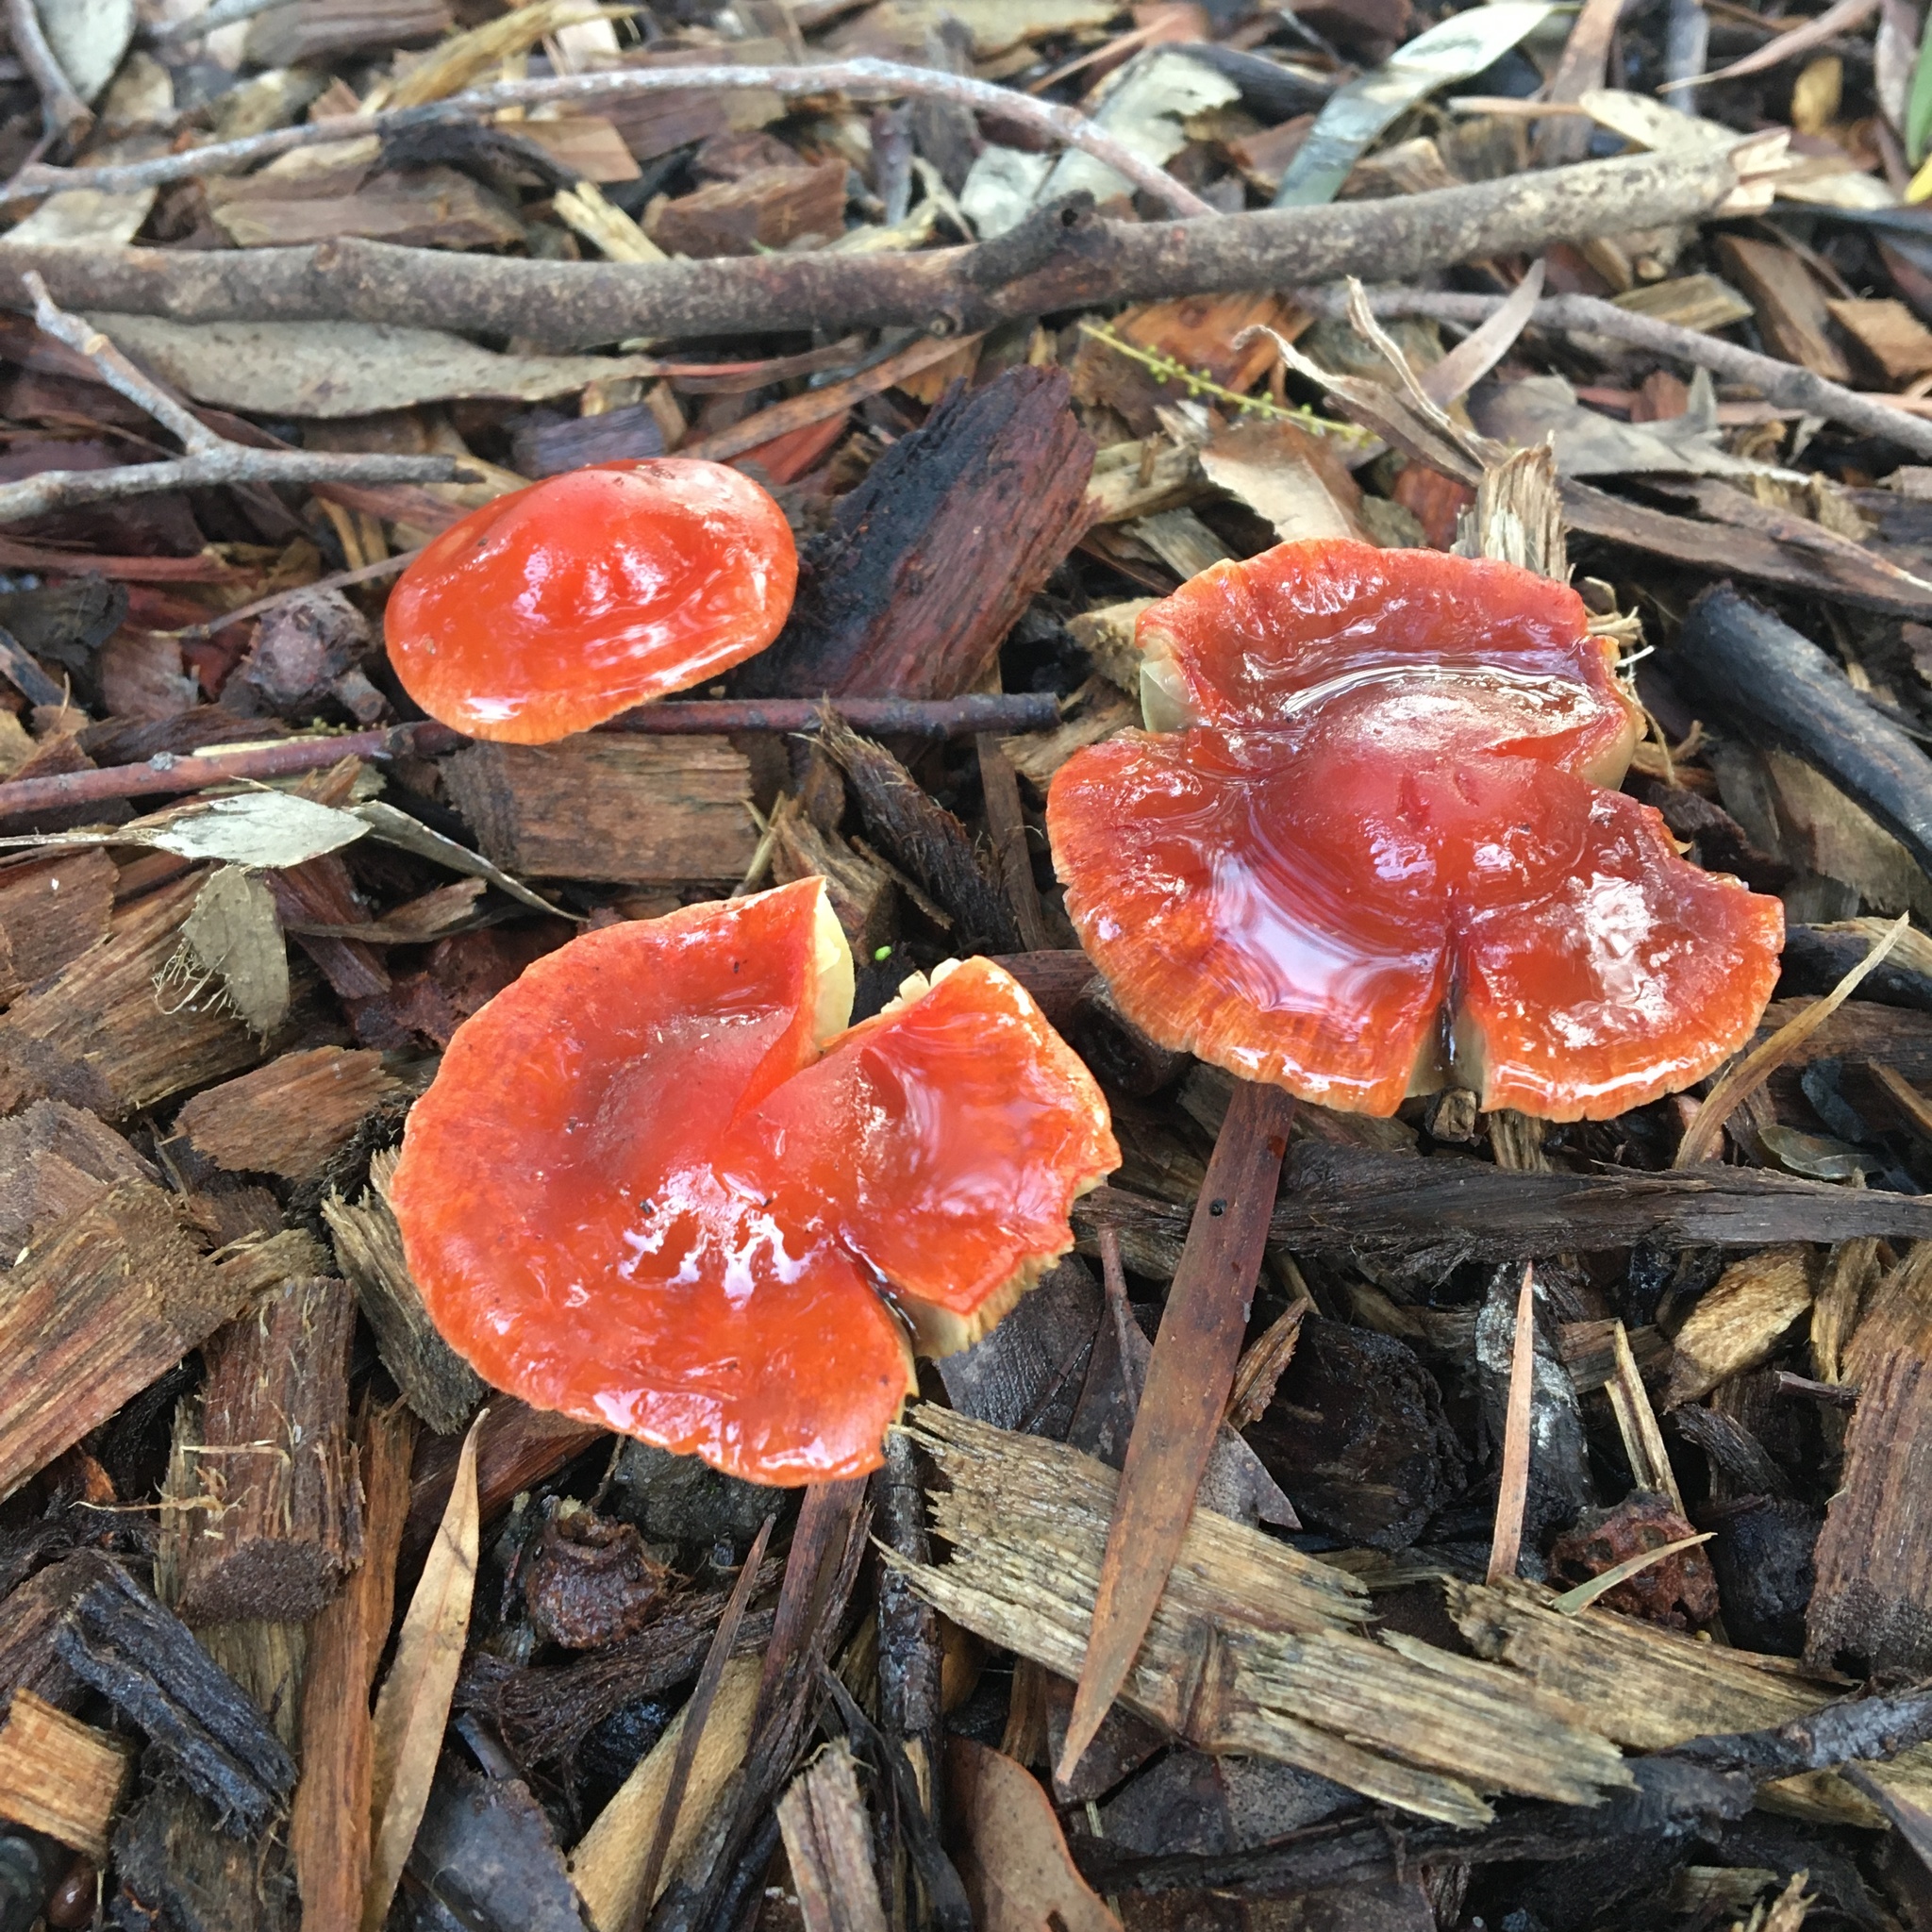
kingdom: Fungi
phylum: Basidiomycota
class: Agaricomycetes
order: Agaricales
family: Strophariaceae
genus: Leratiomyces
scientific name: Leratiomyces ceres
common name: Redlead roundhead
